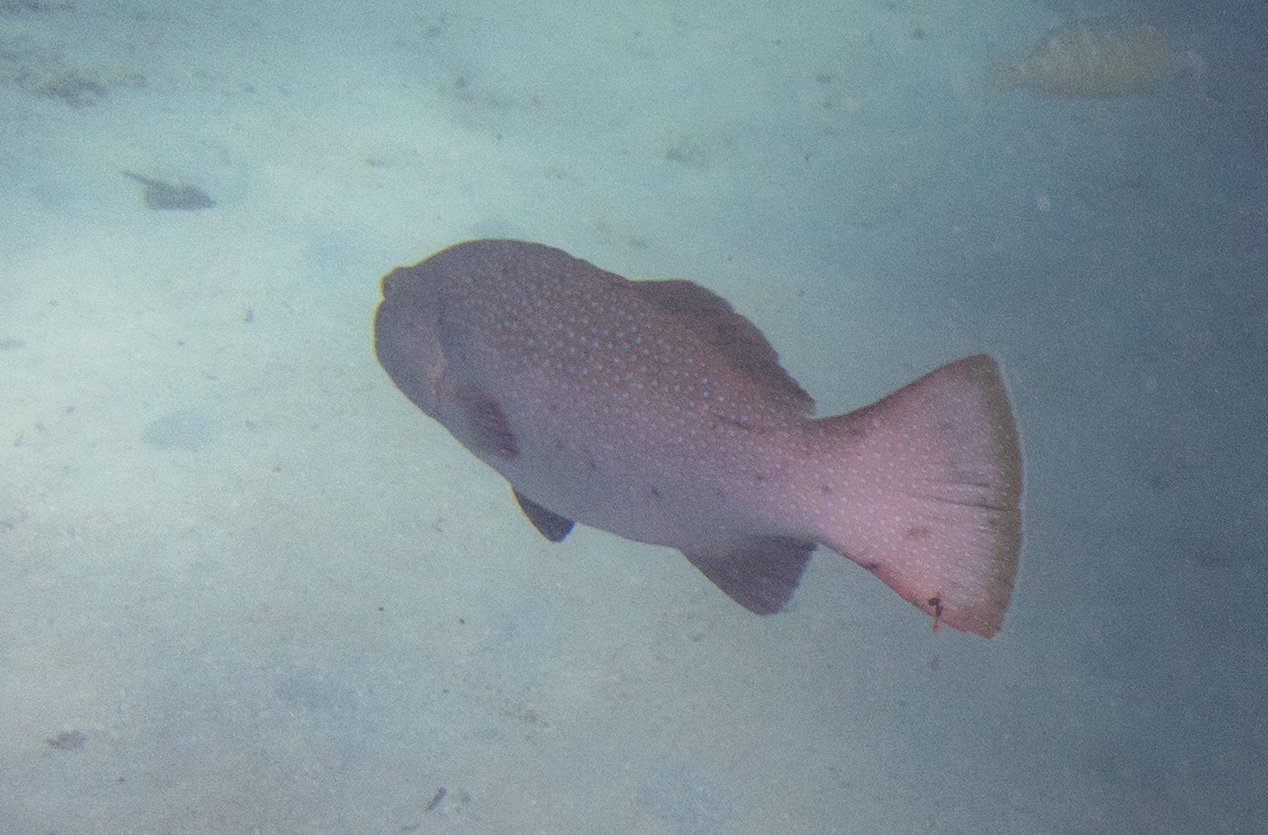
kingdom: Animalia
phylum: Chordata
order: Perciformes
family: Serranidae
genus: Plectropomus
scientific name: Plectropomus areolatus
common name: Squaretail coralgrouper
